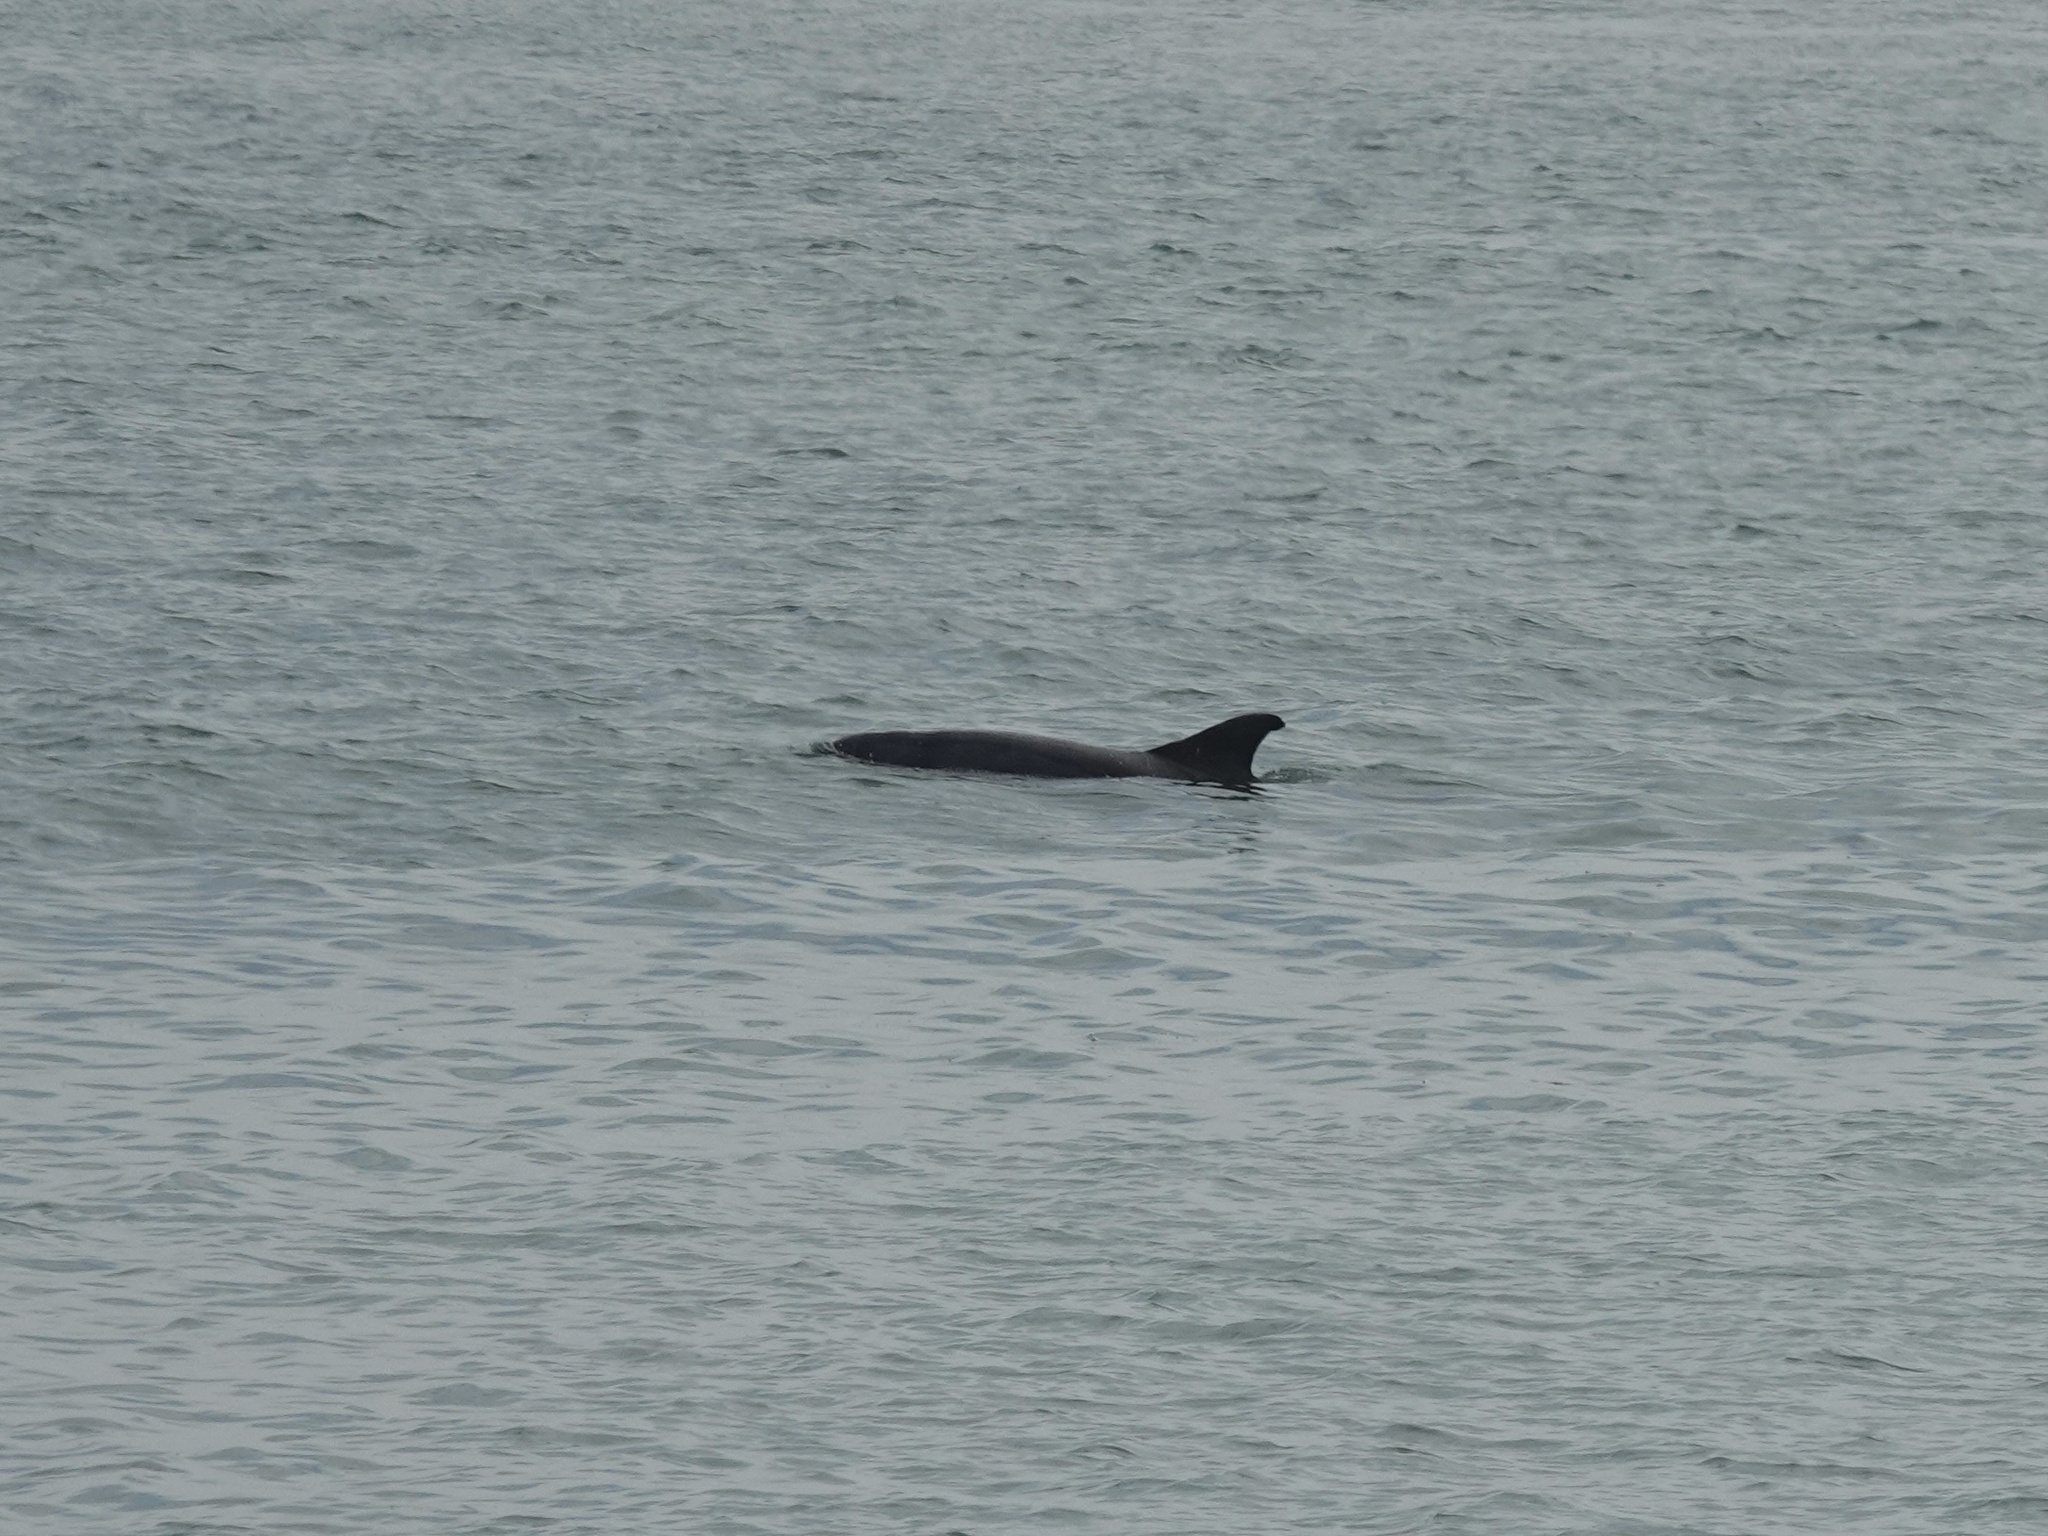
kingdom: Animalia
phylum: Chordata
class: Mammalia
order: Cetacea
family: Delphinidae
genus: Tursiops
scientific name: Tursiops truncatus
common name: Bottlenose dolphin
